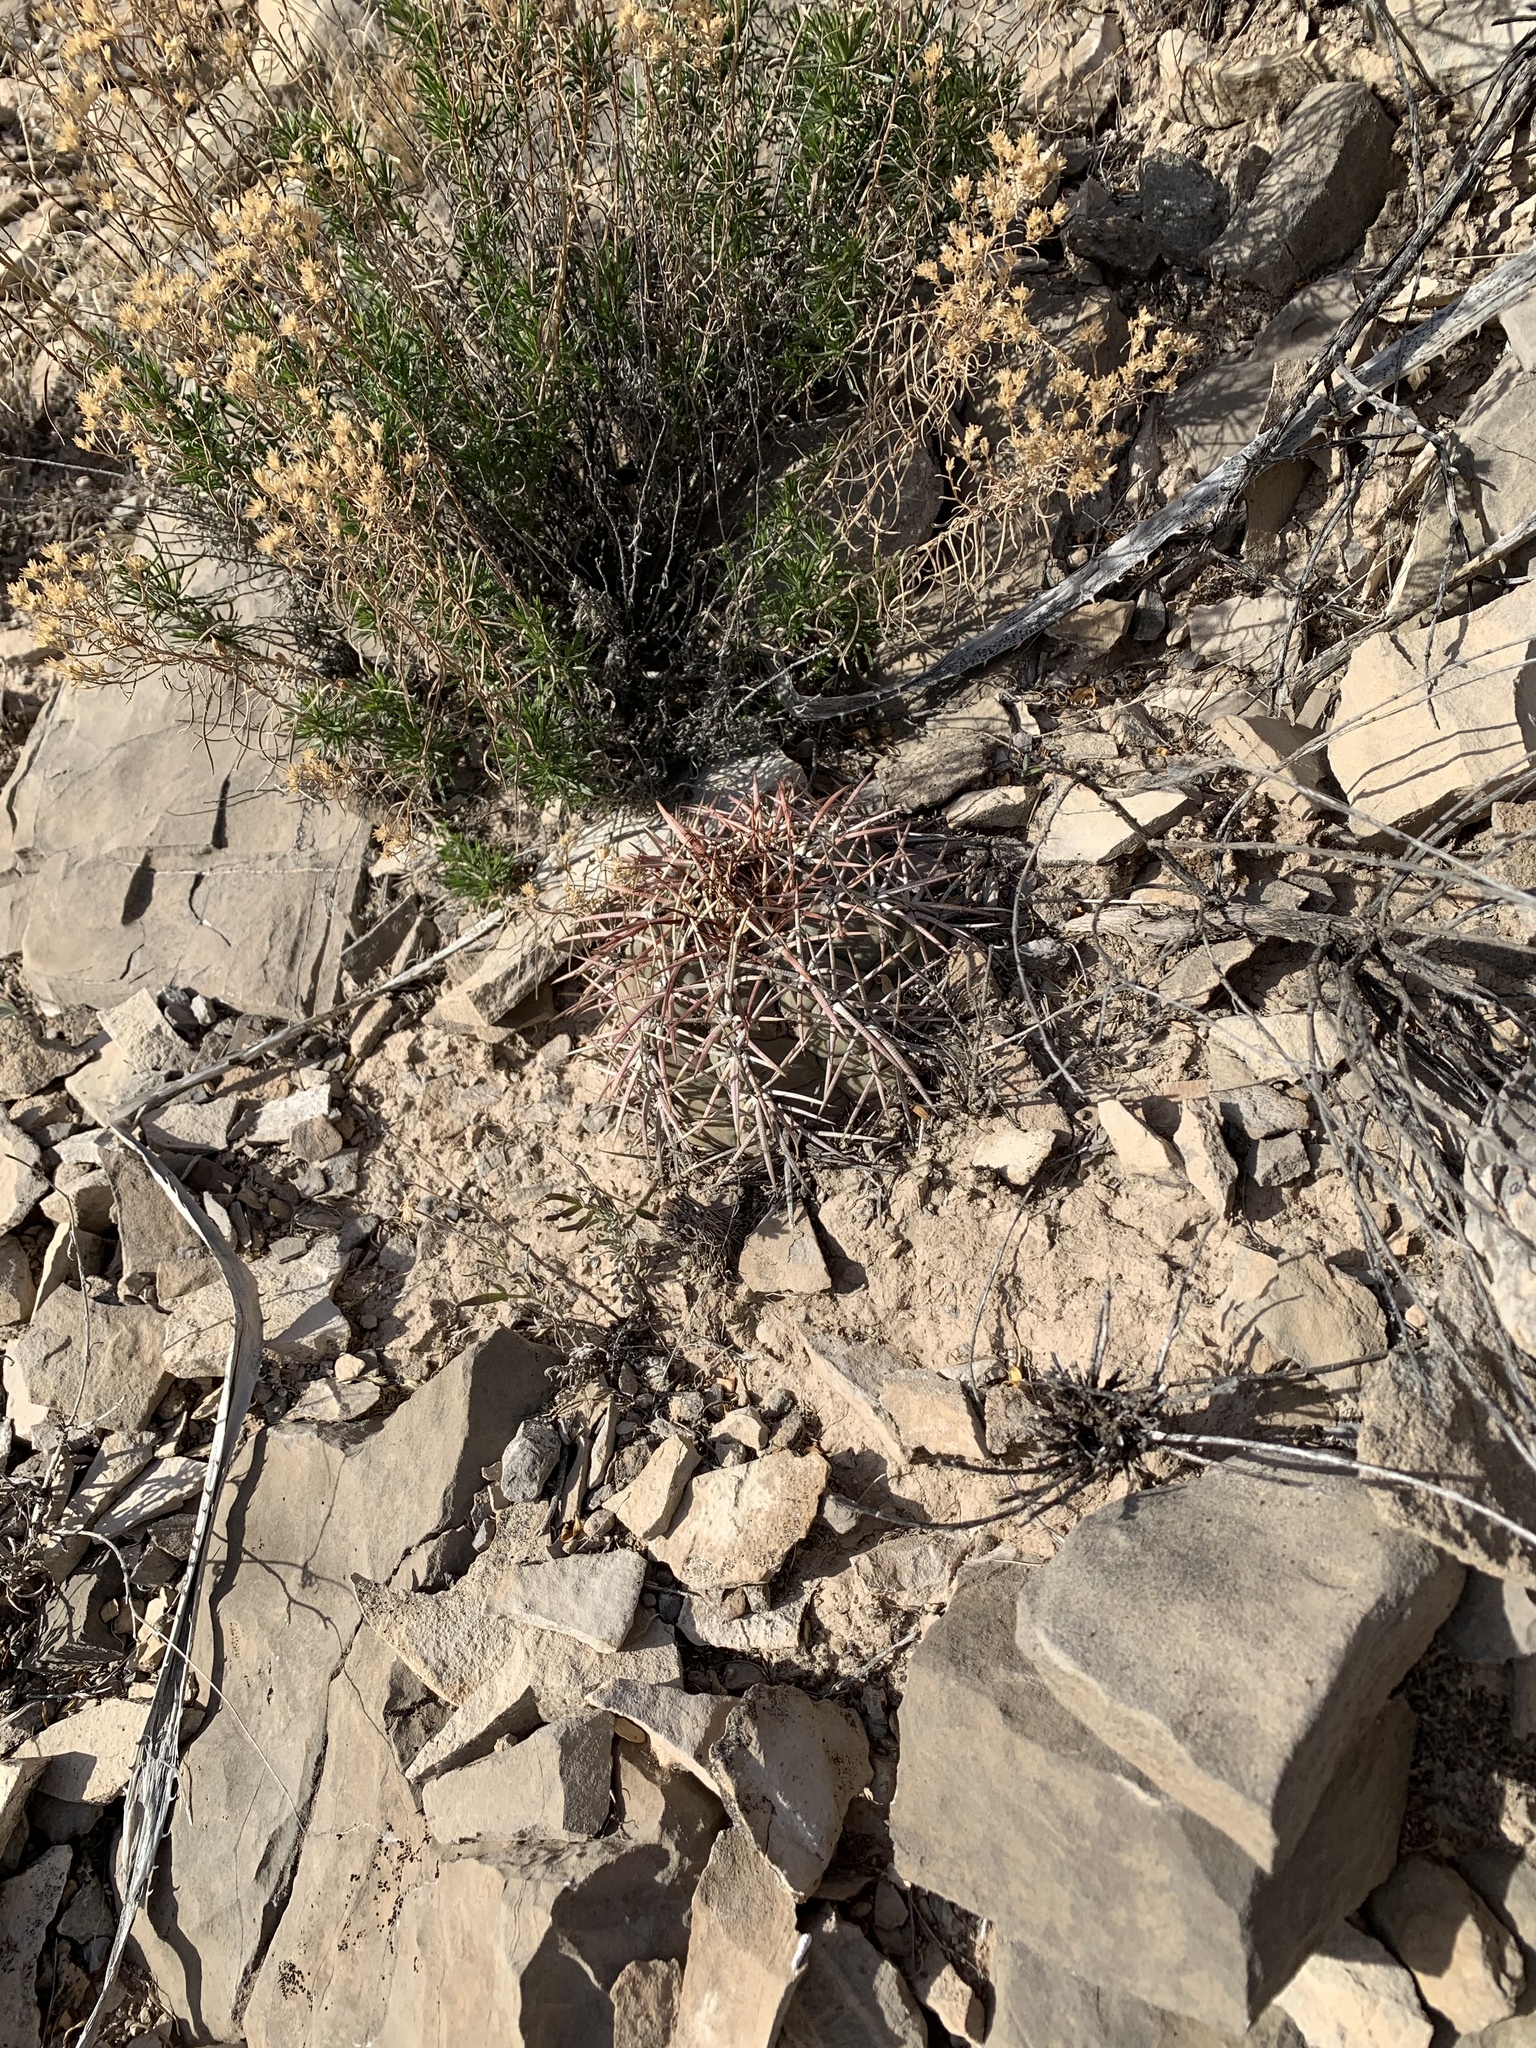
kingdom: Plantae
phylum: Tracheophyta
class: Magnoliopsida
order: Caryophyllales
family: Cactaceae
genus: Echinocactus
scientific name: Echinocactus horizonthalonius
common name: Devilshead
